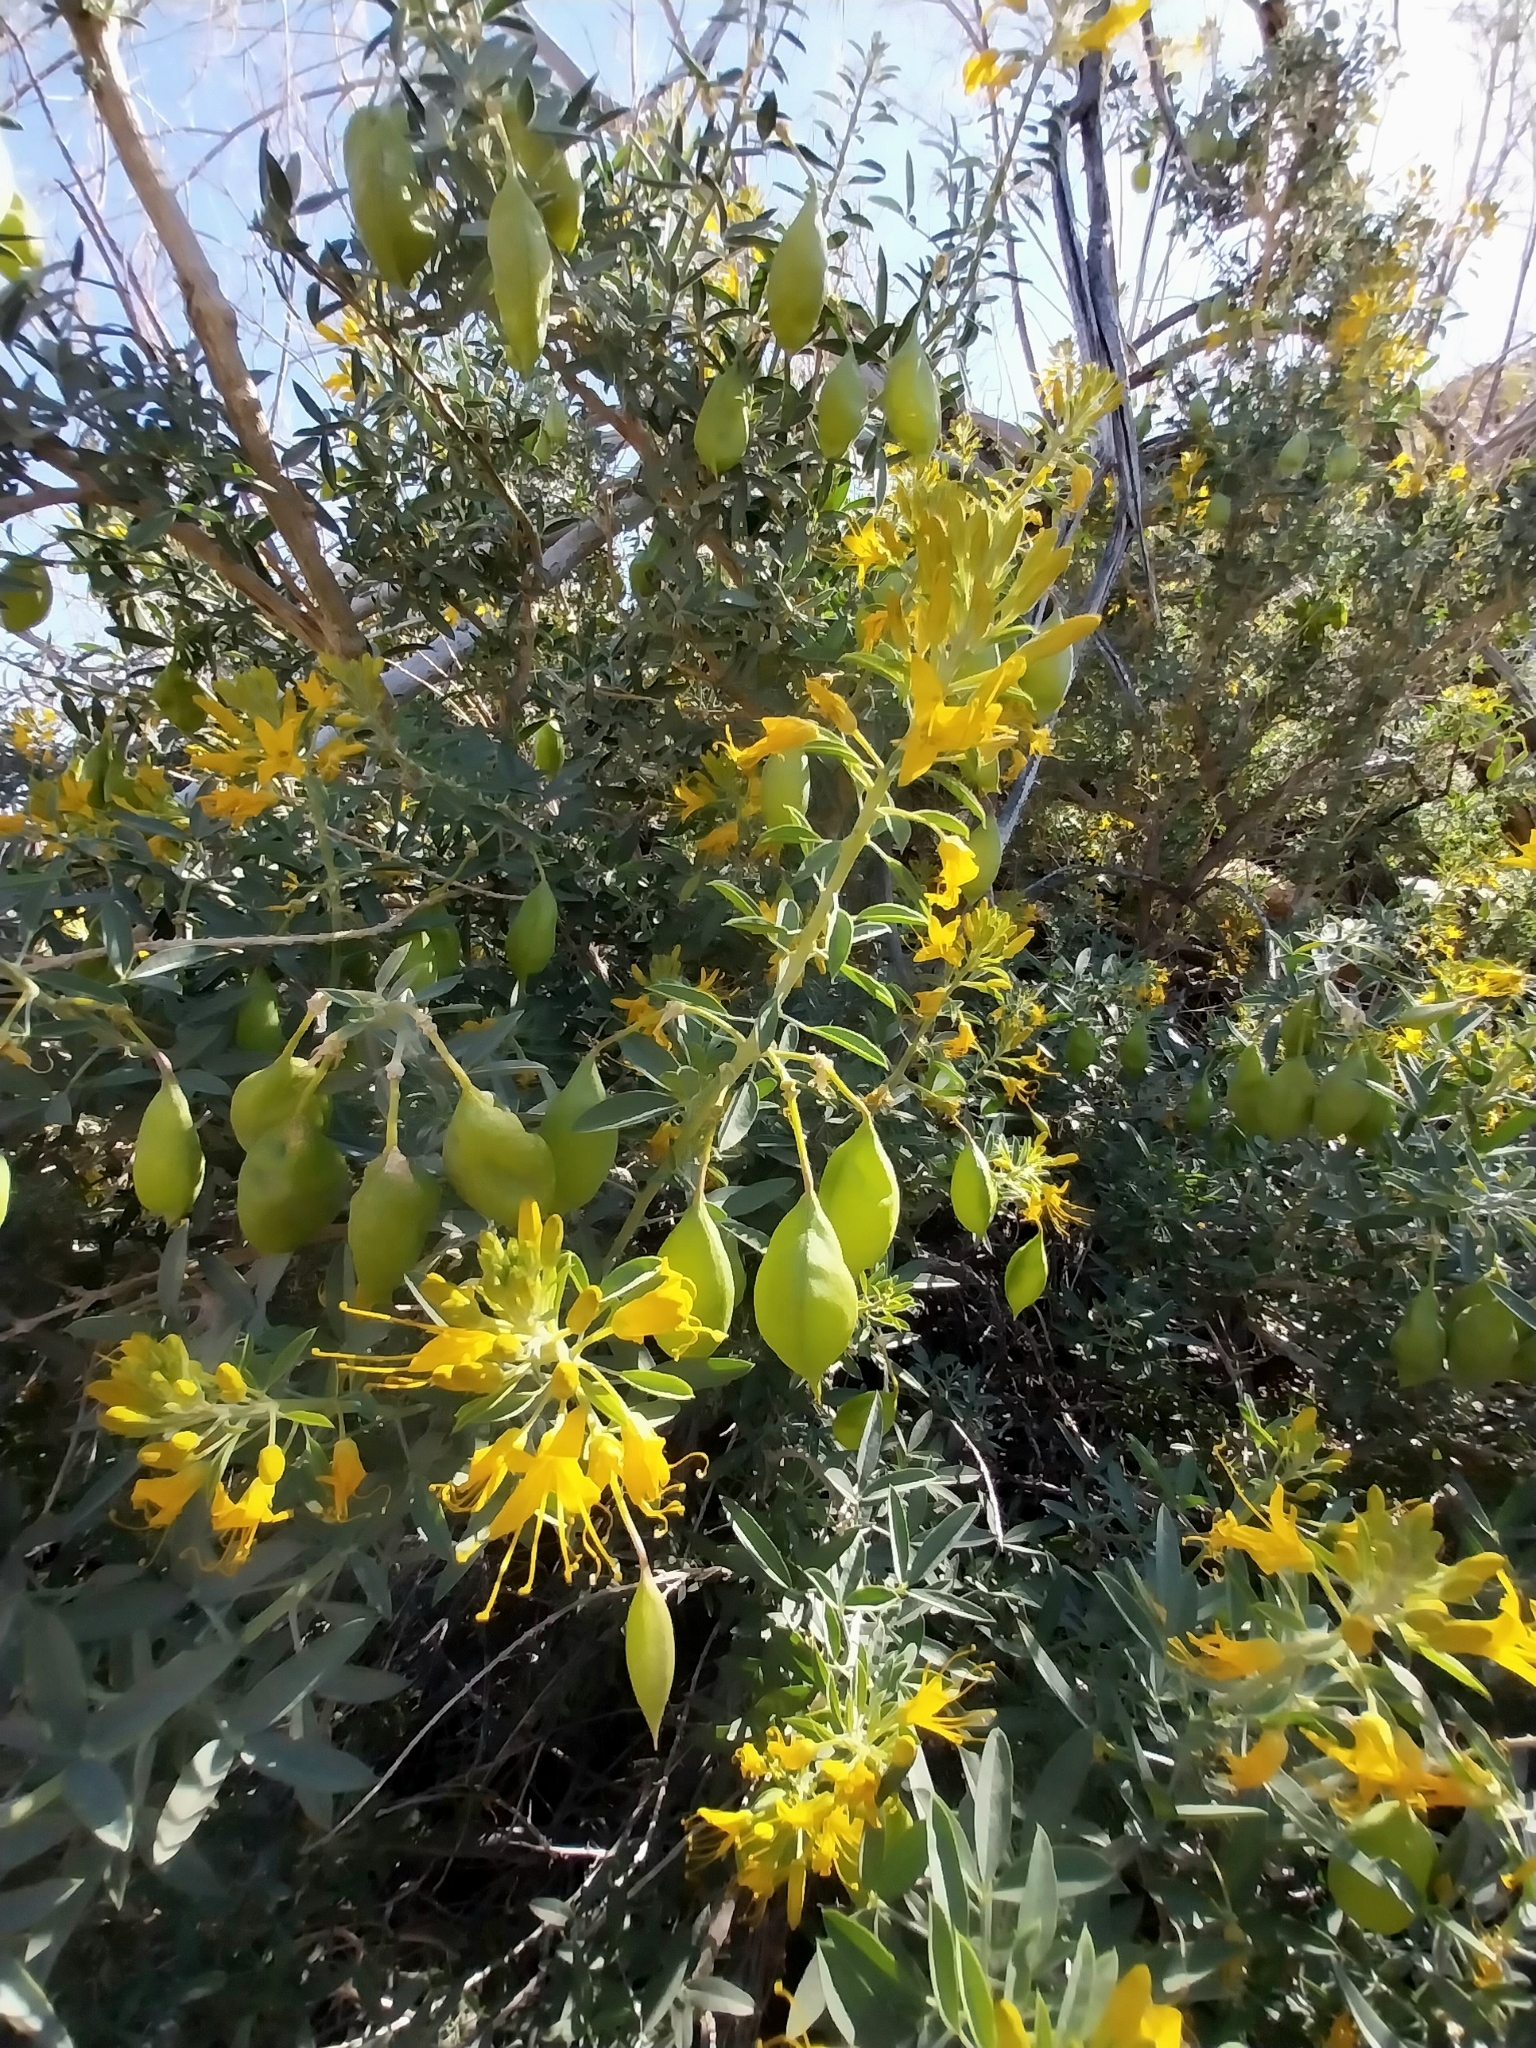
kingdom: Plantae
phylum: Tracheophyta
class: Magnoliopsida
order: Brassicales
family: Cleomaceae
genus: Cleomella
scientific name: Cleomella arborea
